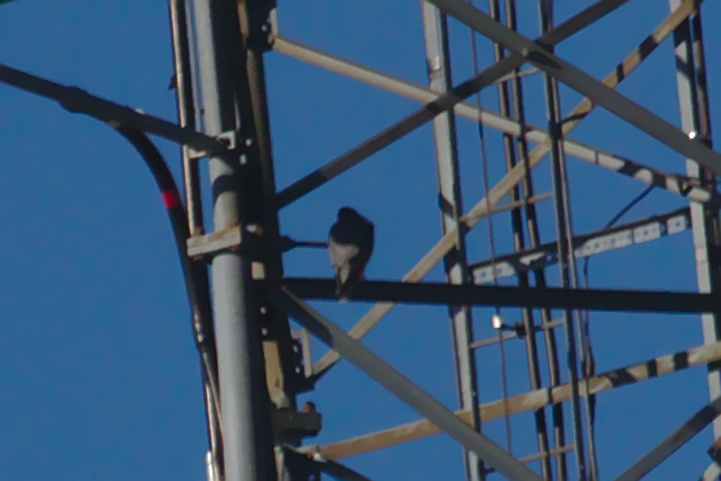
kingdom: Animalia
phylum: Chordata
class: Aves
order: Falconiformes
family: Falconidae
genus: Falco
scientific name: Falco peregrinus
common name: Peregrine falcon
